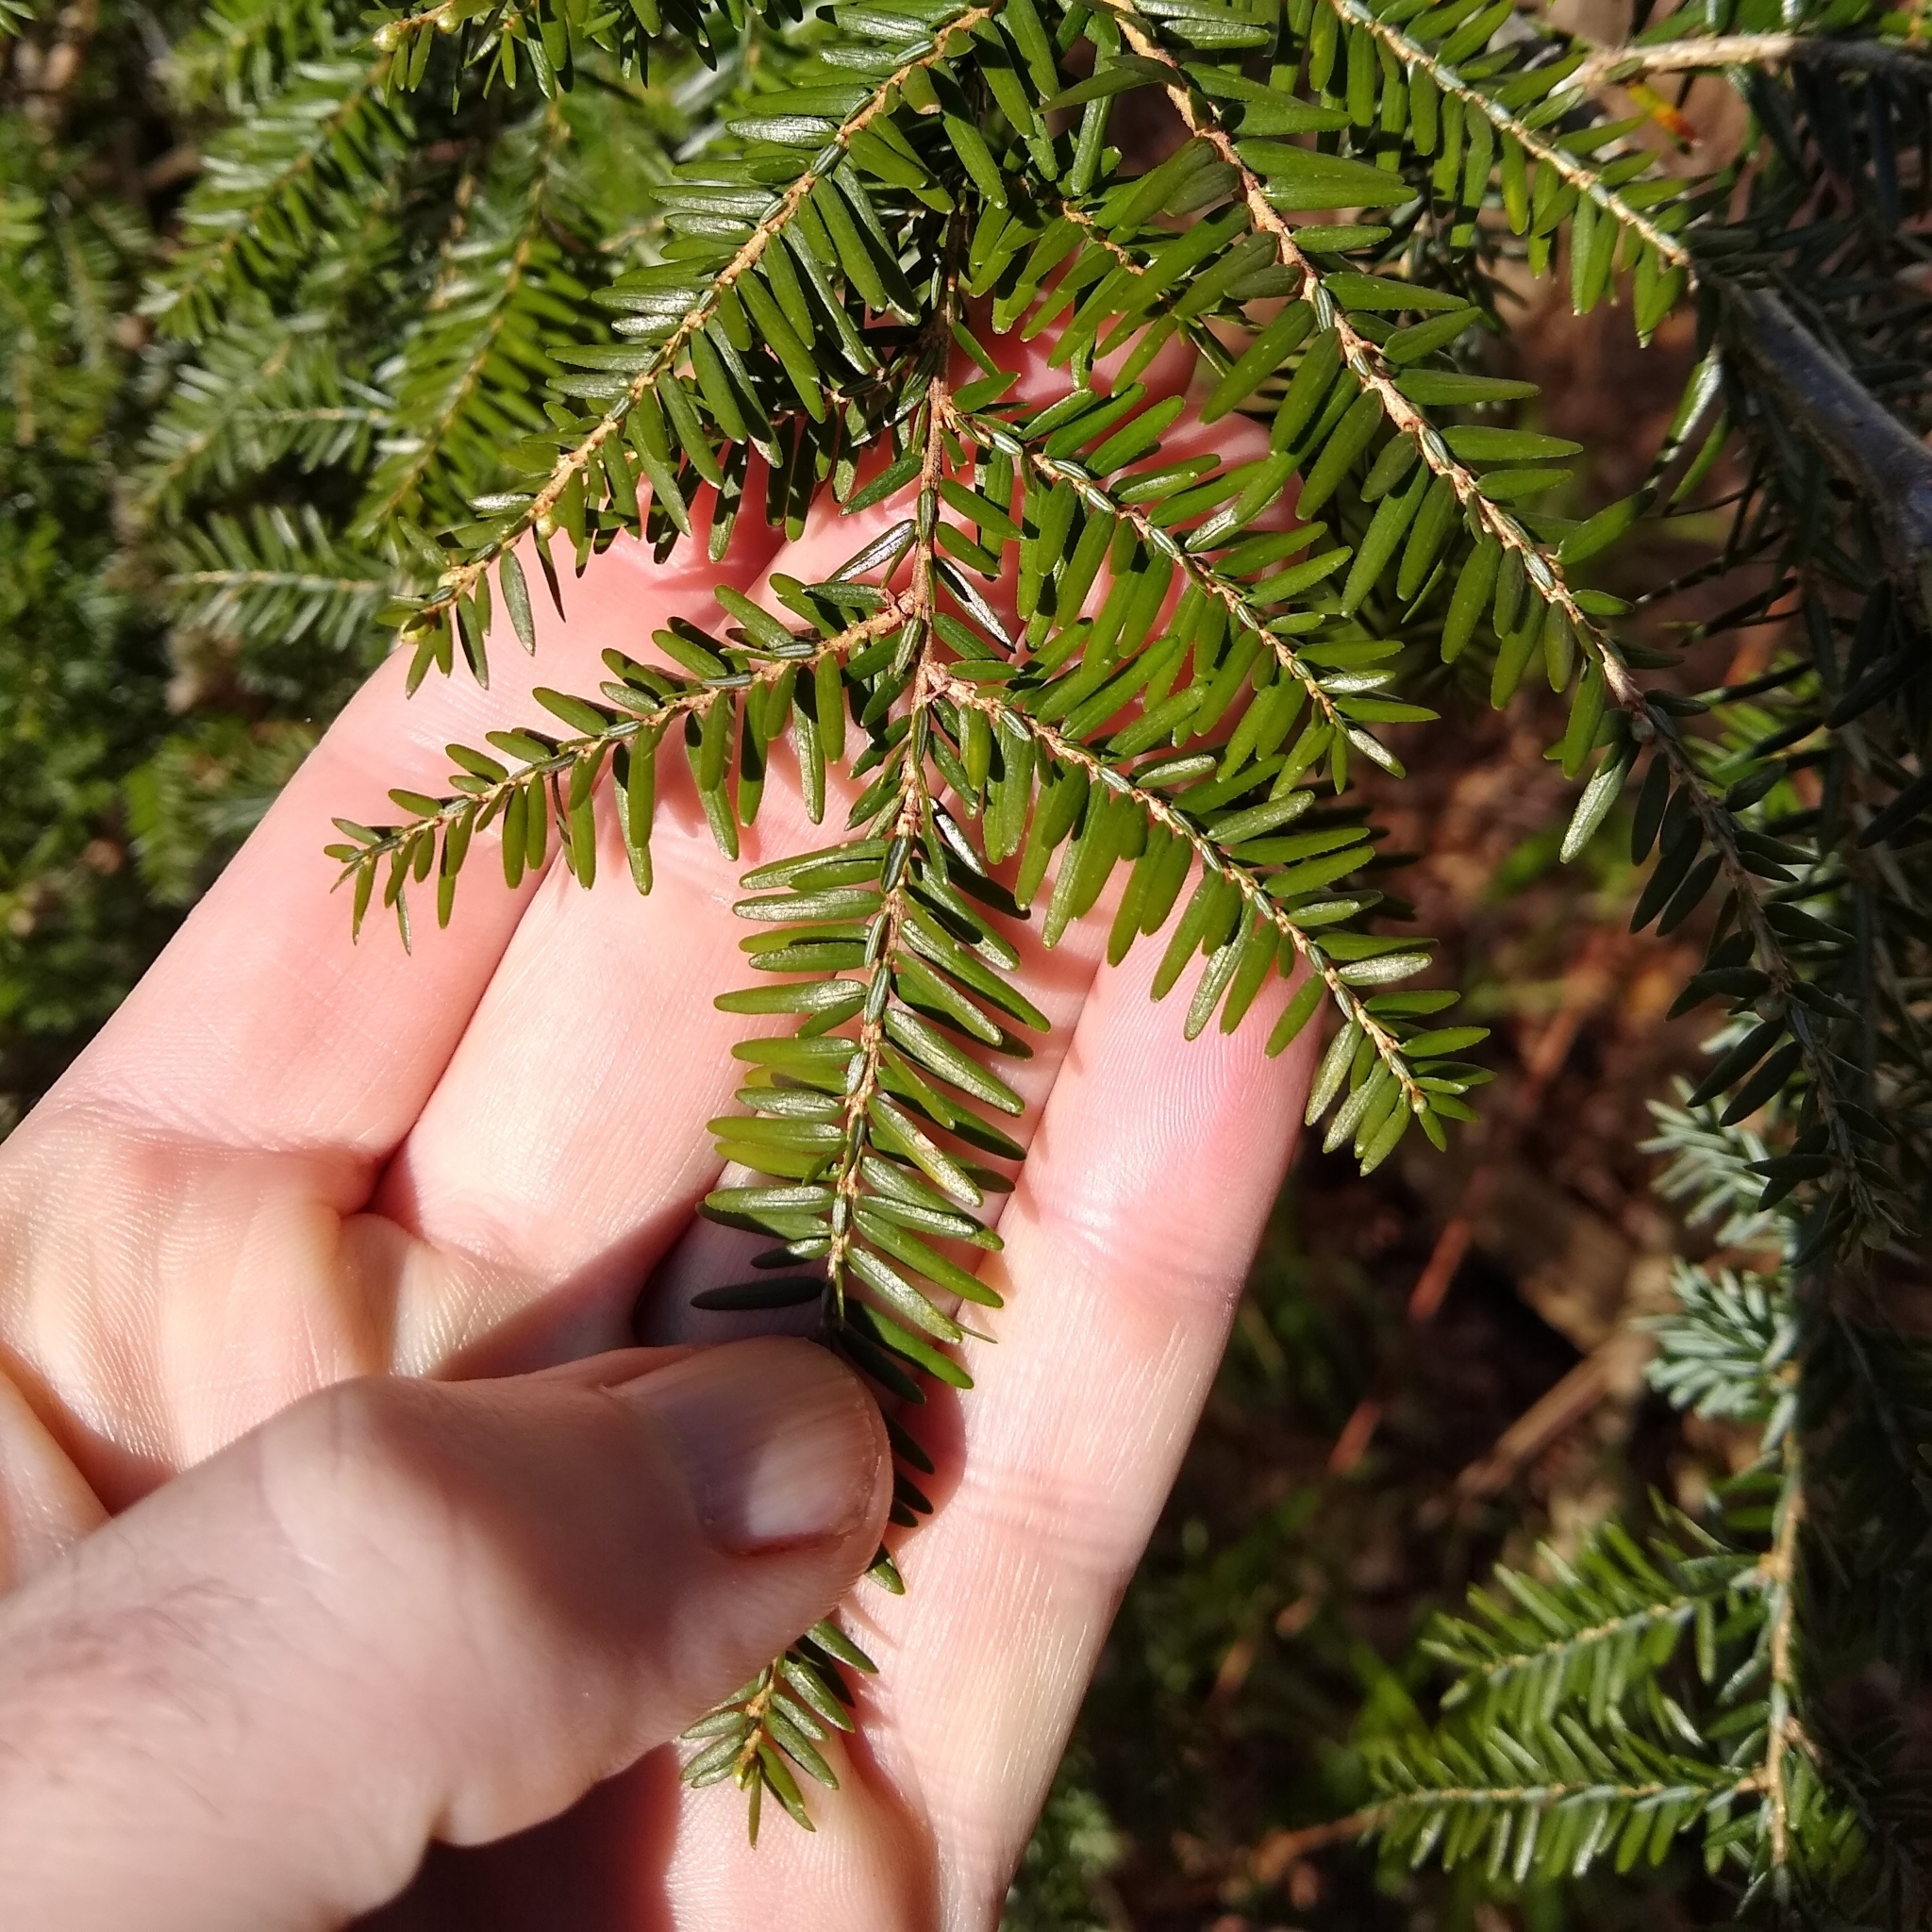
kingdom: Plantae
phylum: Tracheophyta
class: Pinopsida
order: Pinales
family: Pinaceae
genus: Tsuga
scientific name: Tsuga canadensis
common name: Eastern hemlock
